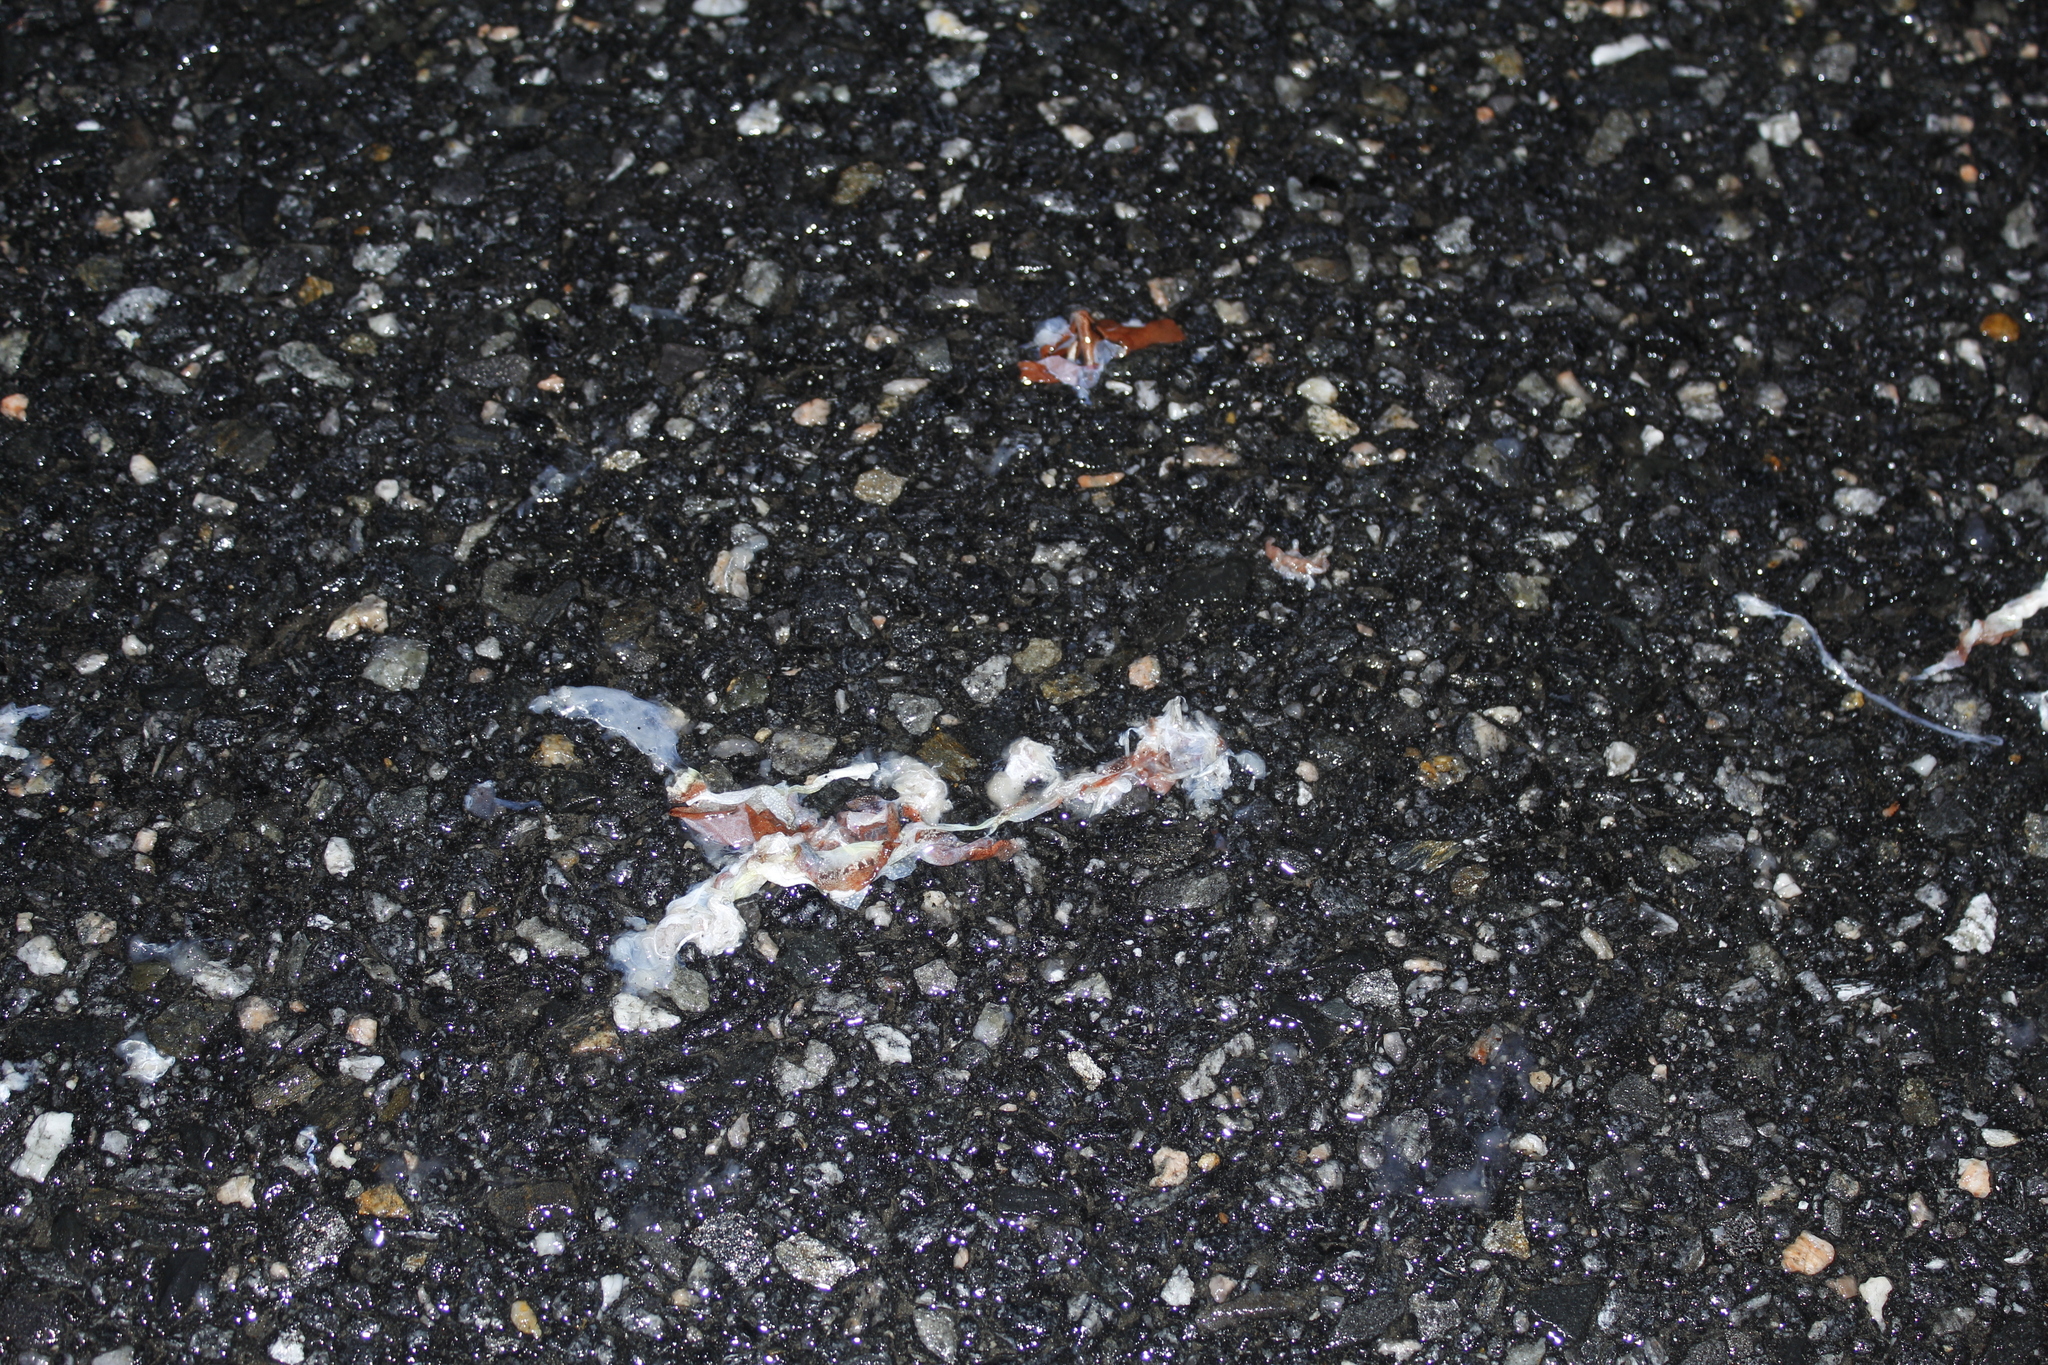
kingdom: Animalia
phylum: Chordata
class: Amphibia
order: Anura
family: Ranidae
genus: Lithobates
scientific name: Lithobates sylvaticus
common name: Wood frog
